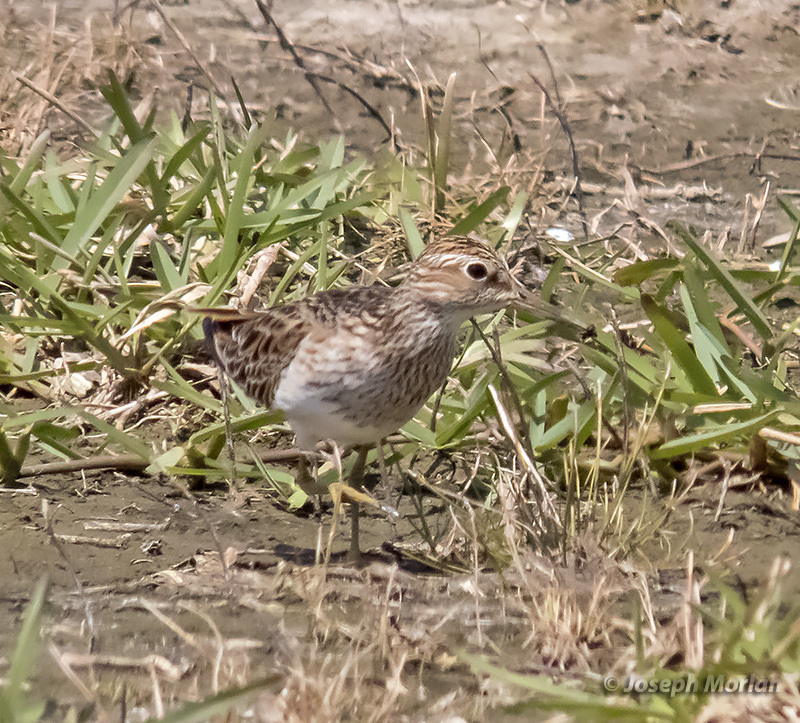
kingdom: Animalia
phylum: Chordata
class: Aves
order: Charadriiformes
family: Scolopacidae
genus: Calidris
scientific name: Calidris melanotos
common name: Pectoral sandpiper
